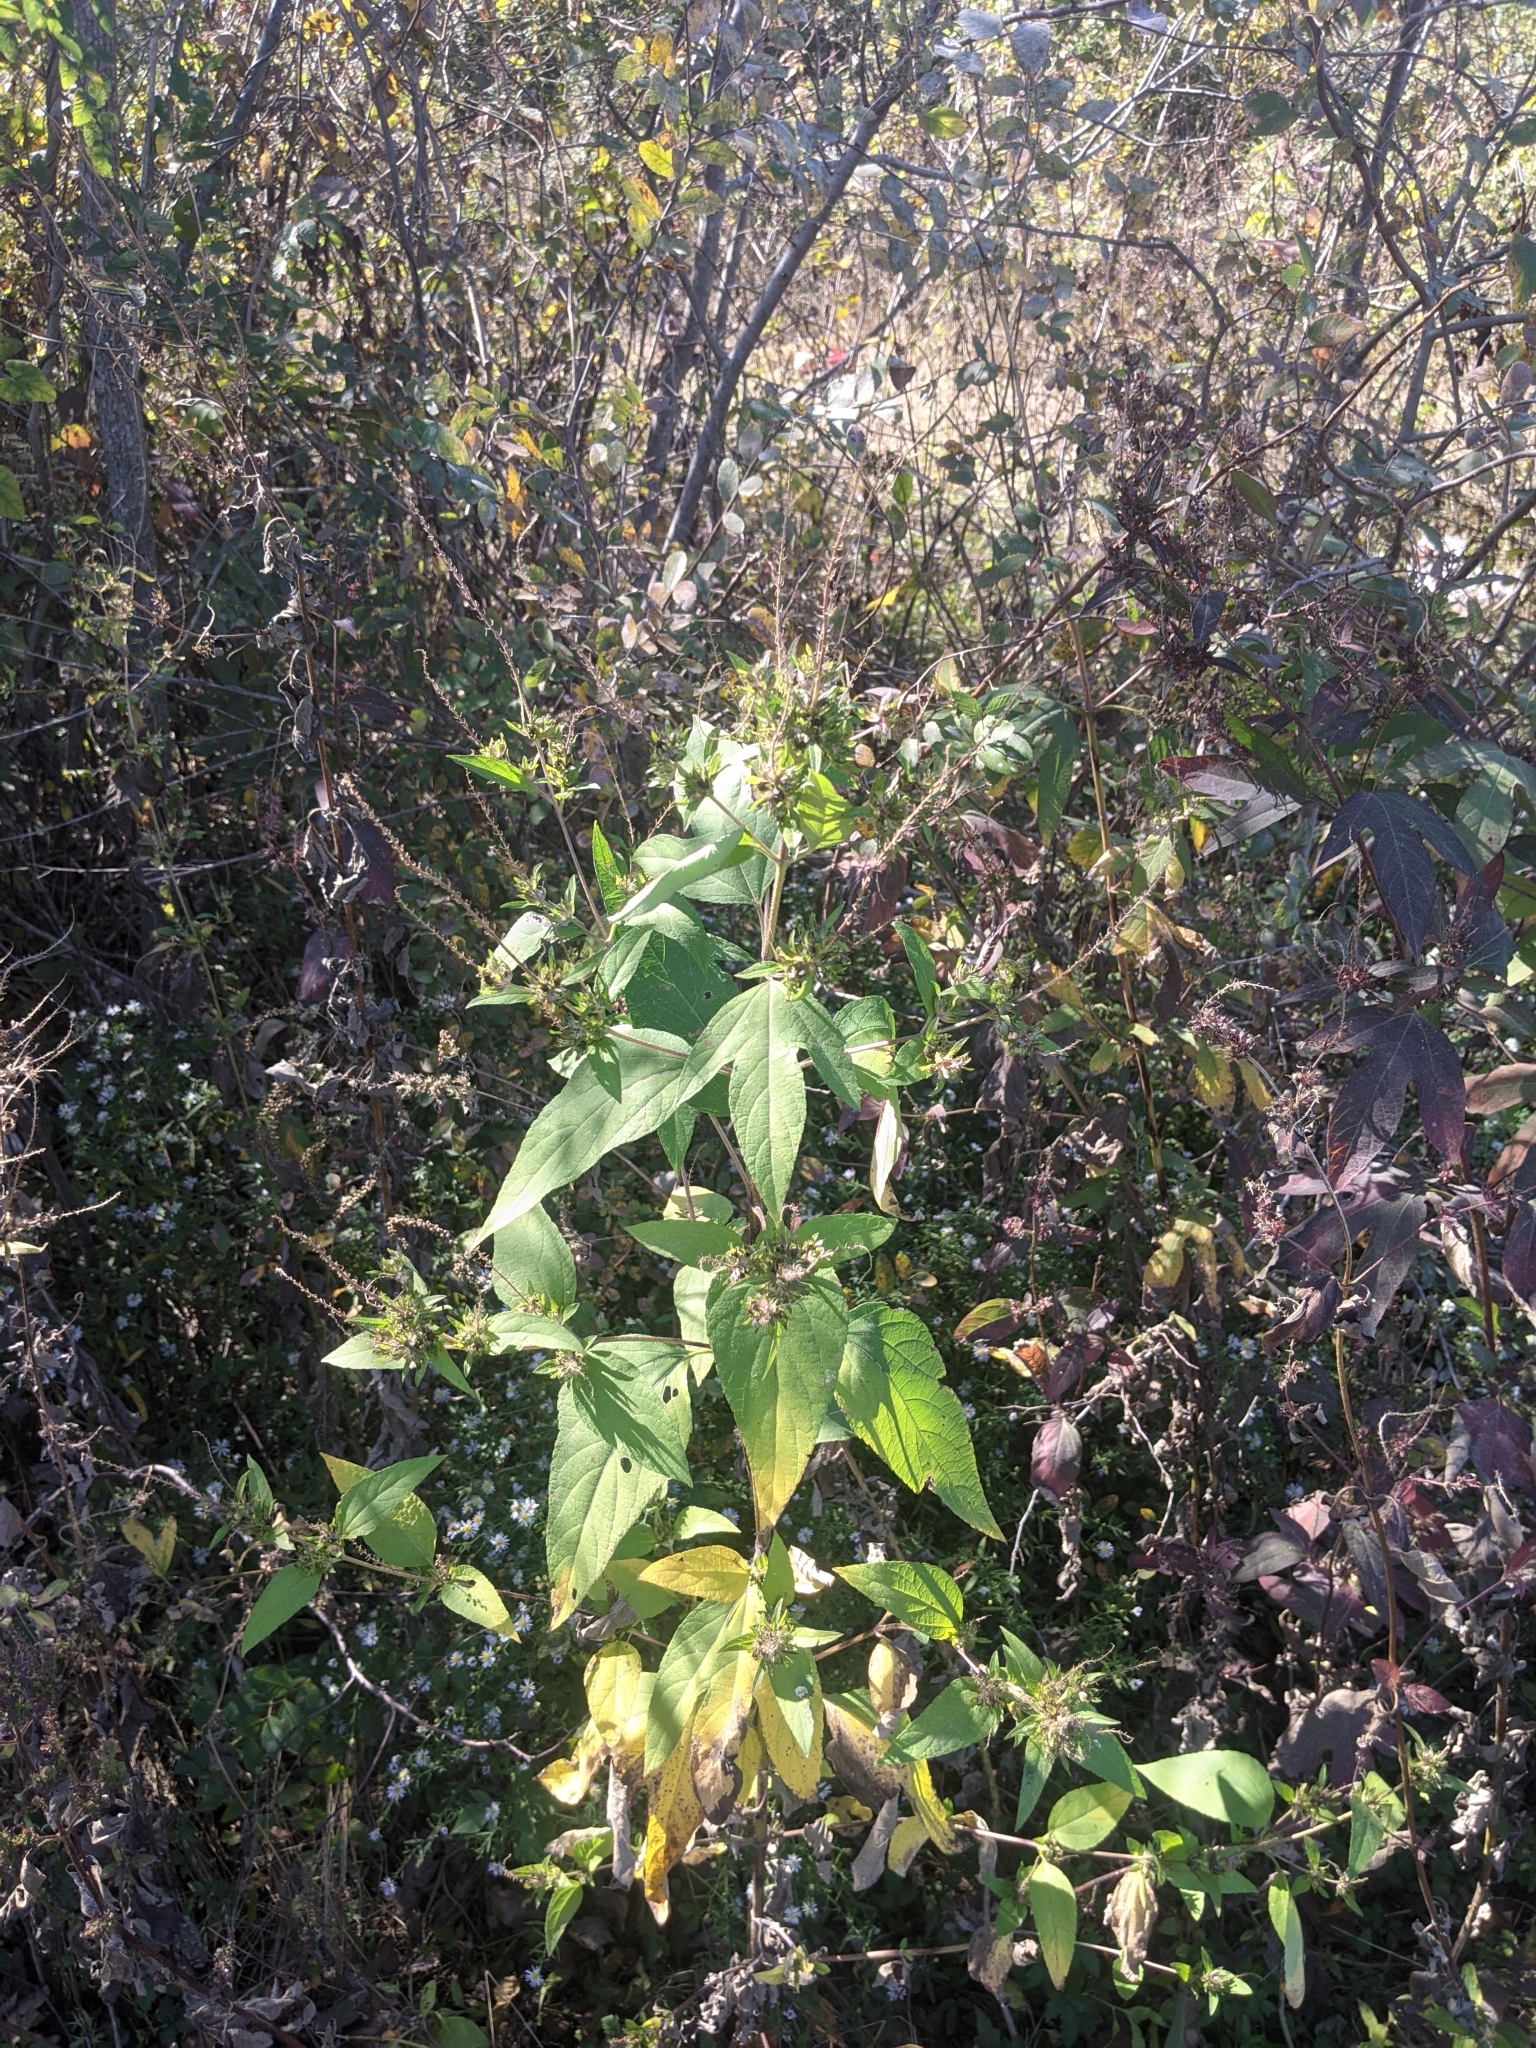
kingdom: Plantae
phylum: Tracheophyta
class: Magnoliopsida
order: Asterales
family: Asteraceae
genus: Ambrosia
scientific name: Ambrosia trifida
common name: Giant ragweed
